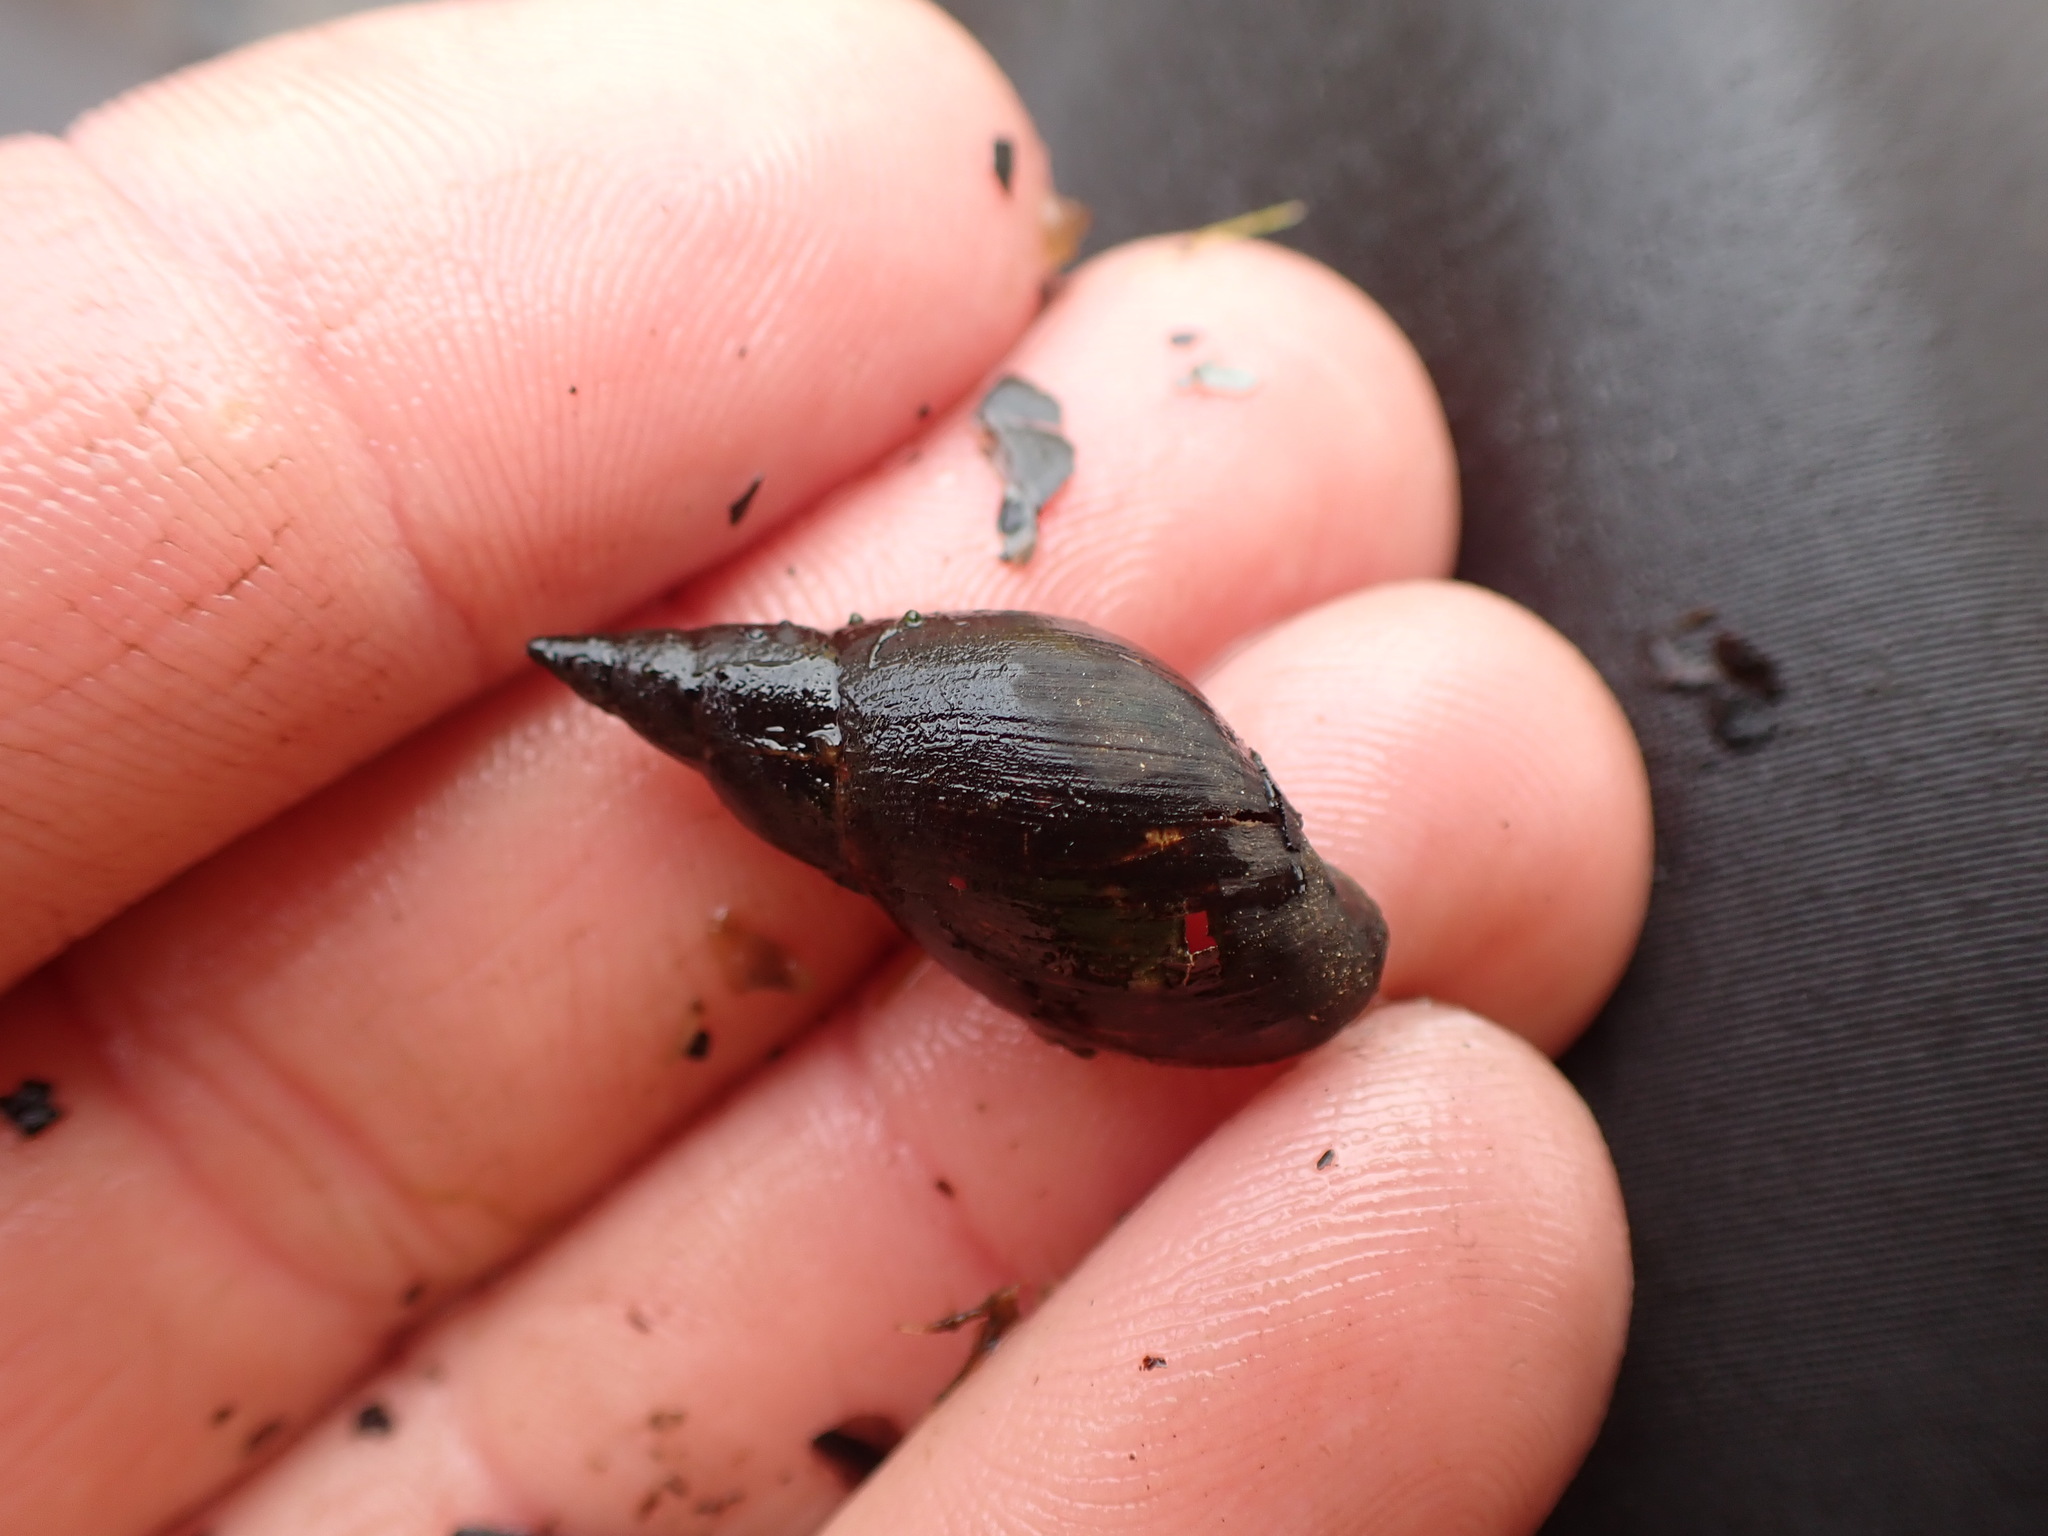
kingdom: Animalia
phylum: Mollusca
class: Gastropoda
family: Lymnaeidae
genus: Lymnaea
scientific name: Lymnaea stagnalis
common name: Great pond snail
